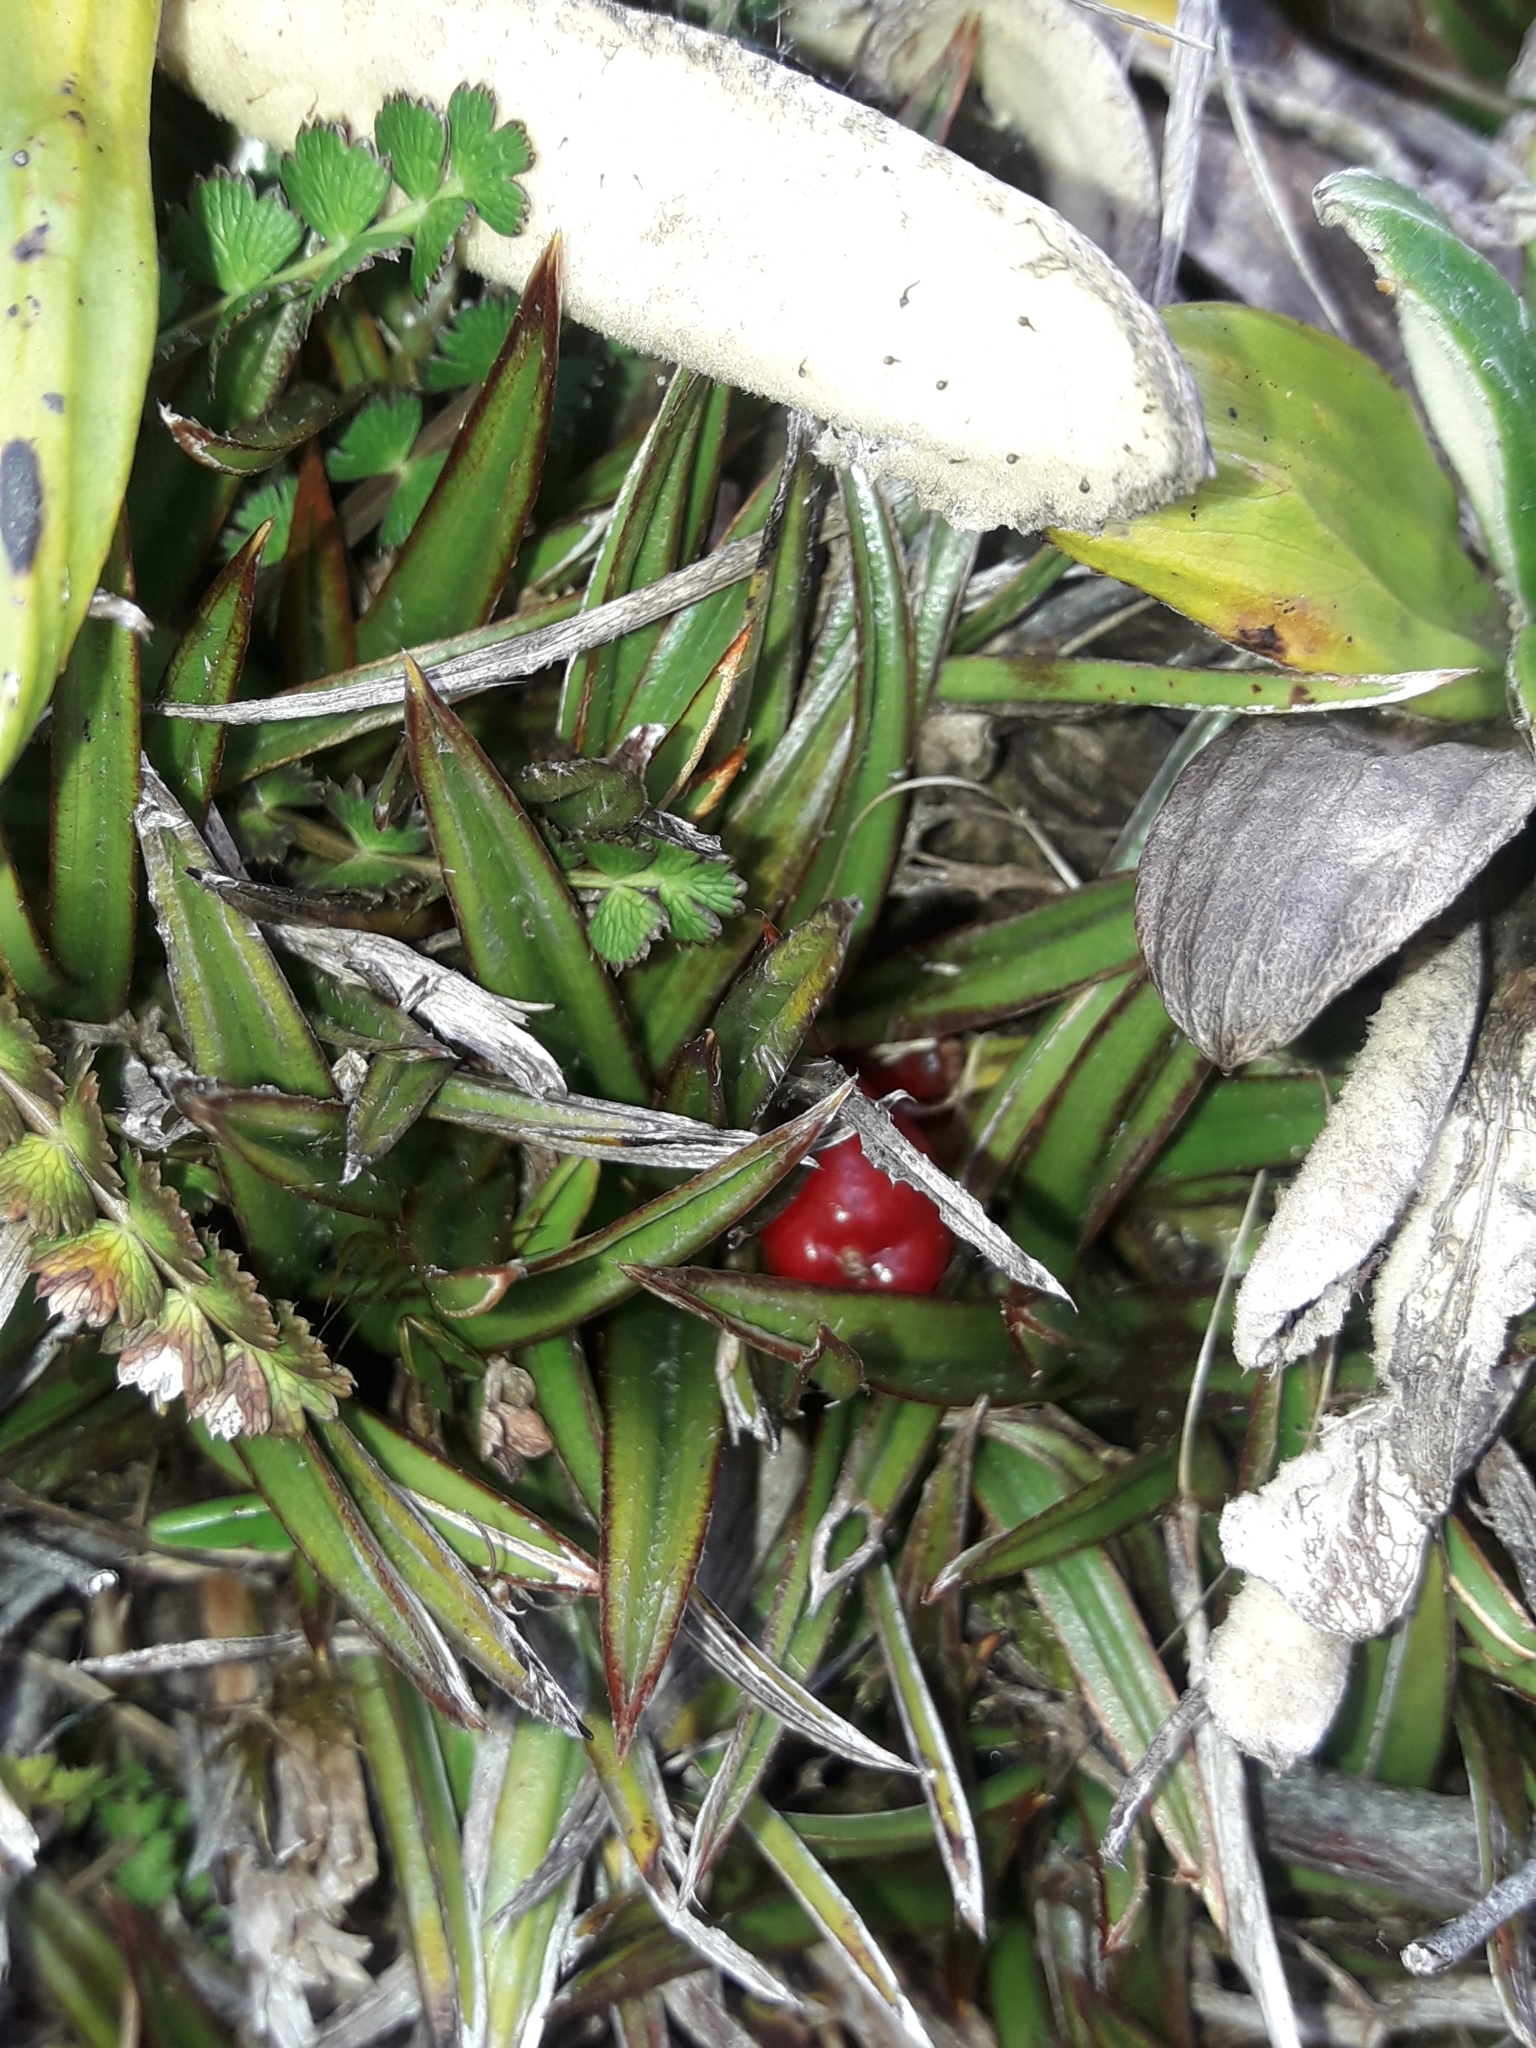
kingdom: Plantae
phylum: Tracheophyta
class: Liliopsida
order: Asparagales
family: Asteliaceae
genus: Astelia
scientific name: Astelia linearis
